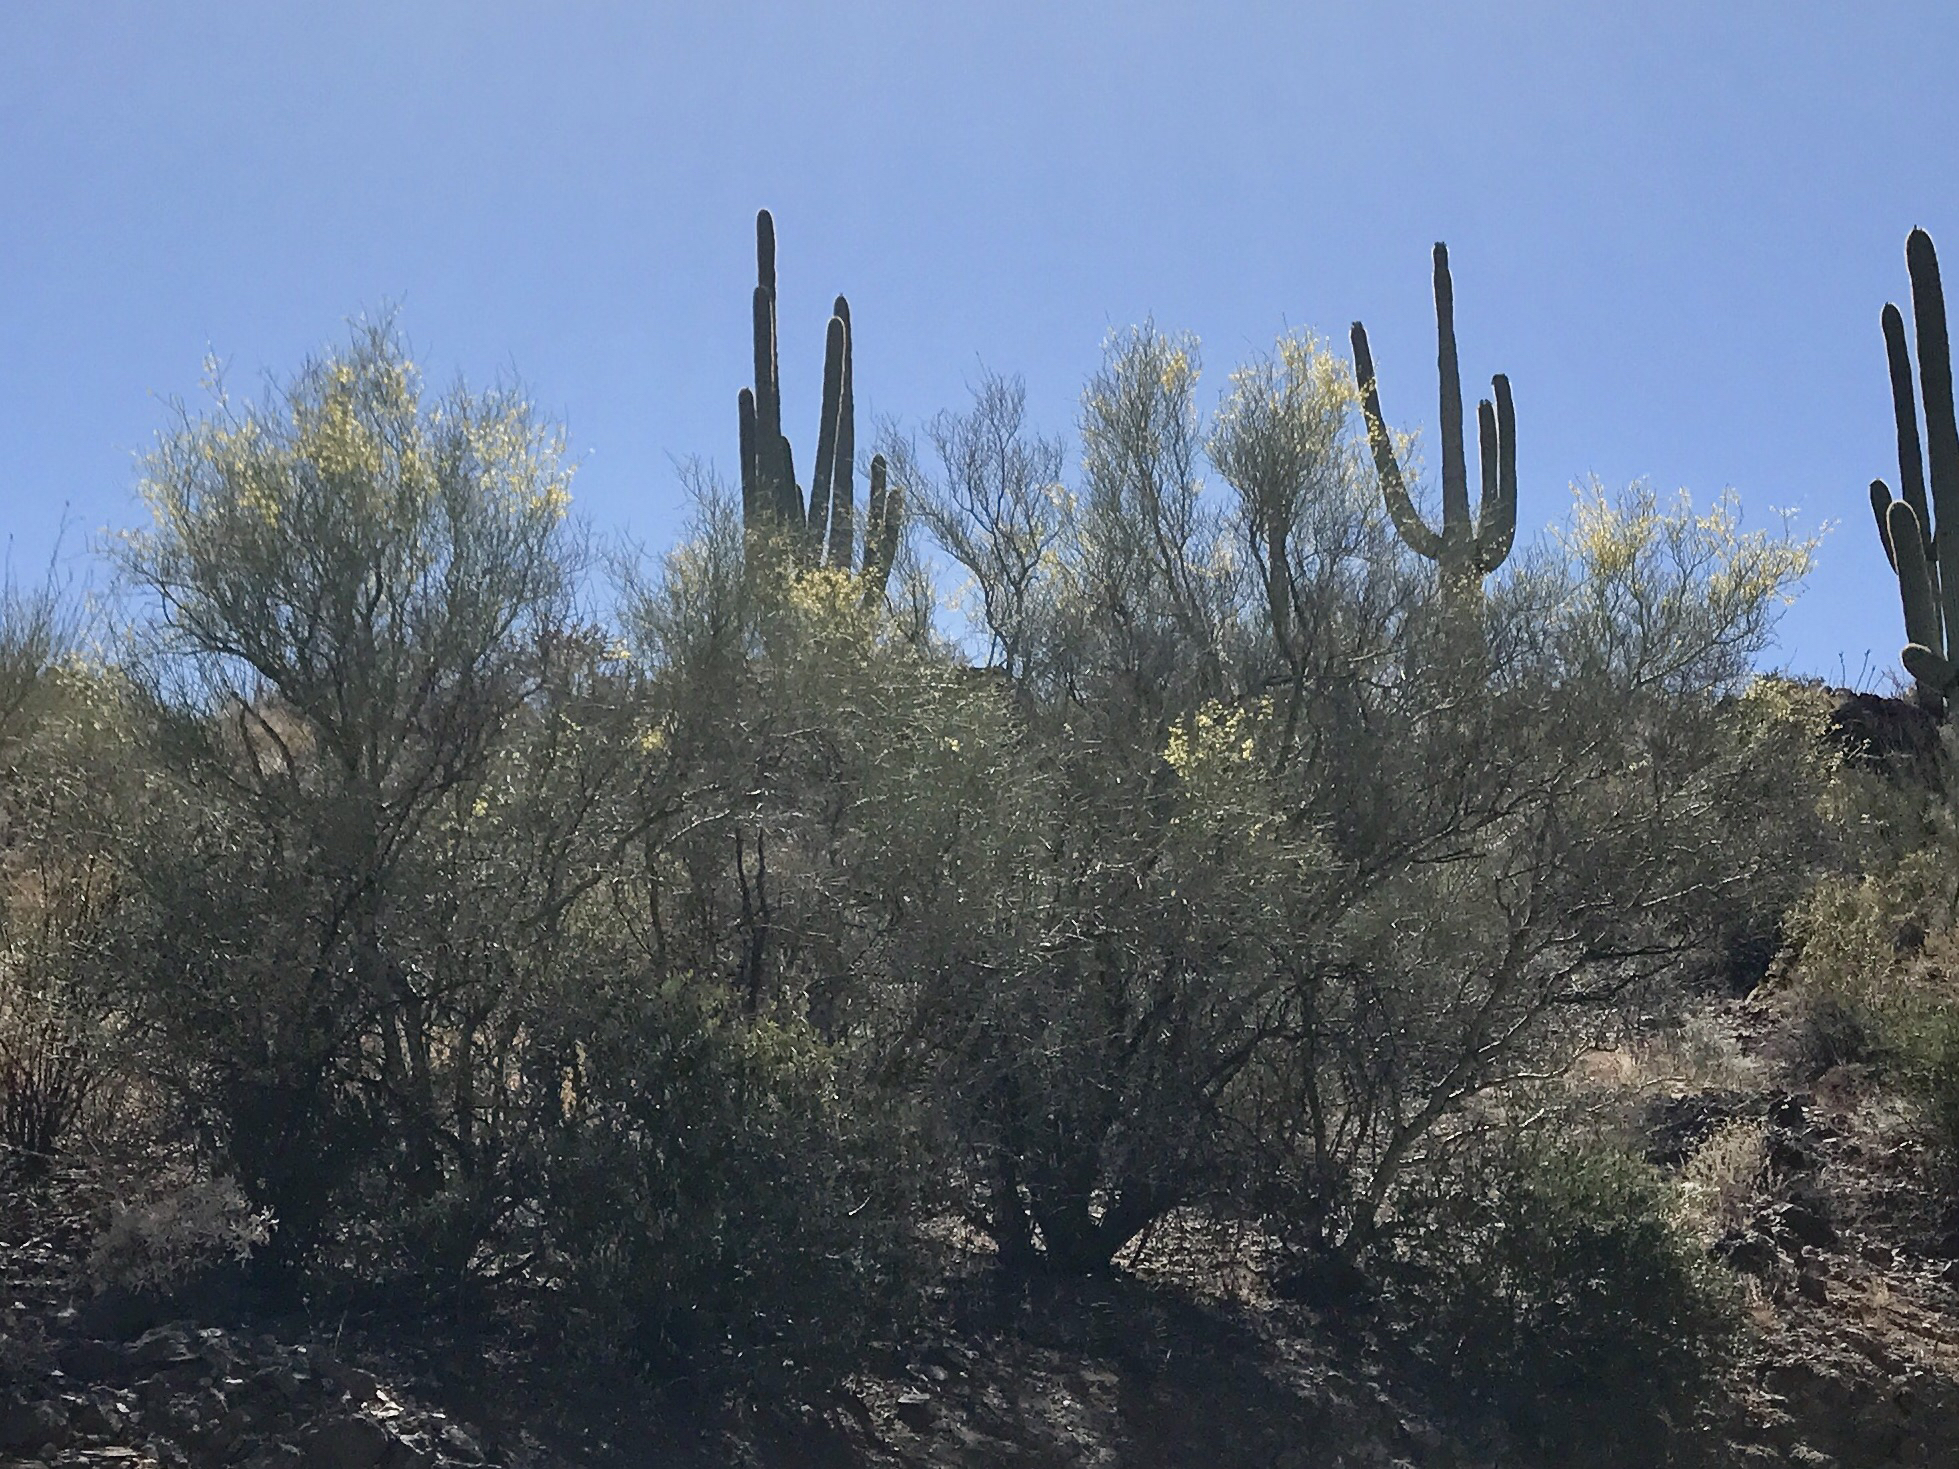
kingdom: Plantae
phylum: Tracheophyta
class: Magnoliopsida
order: Fabales
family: Fabaceae
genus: Parkinsonia
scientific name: Parkinsonia microphylla
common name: Yellow paloverde
